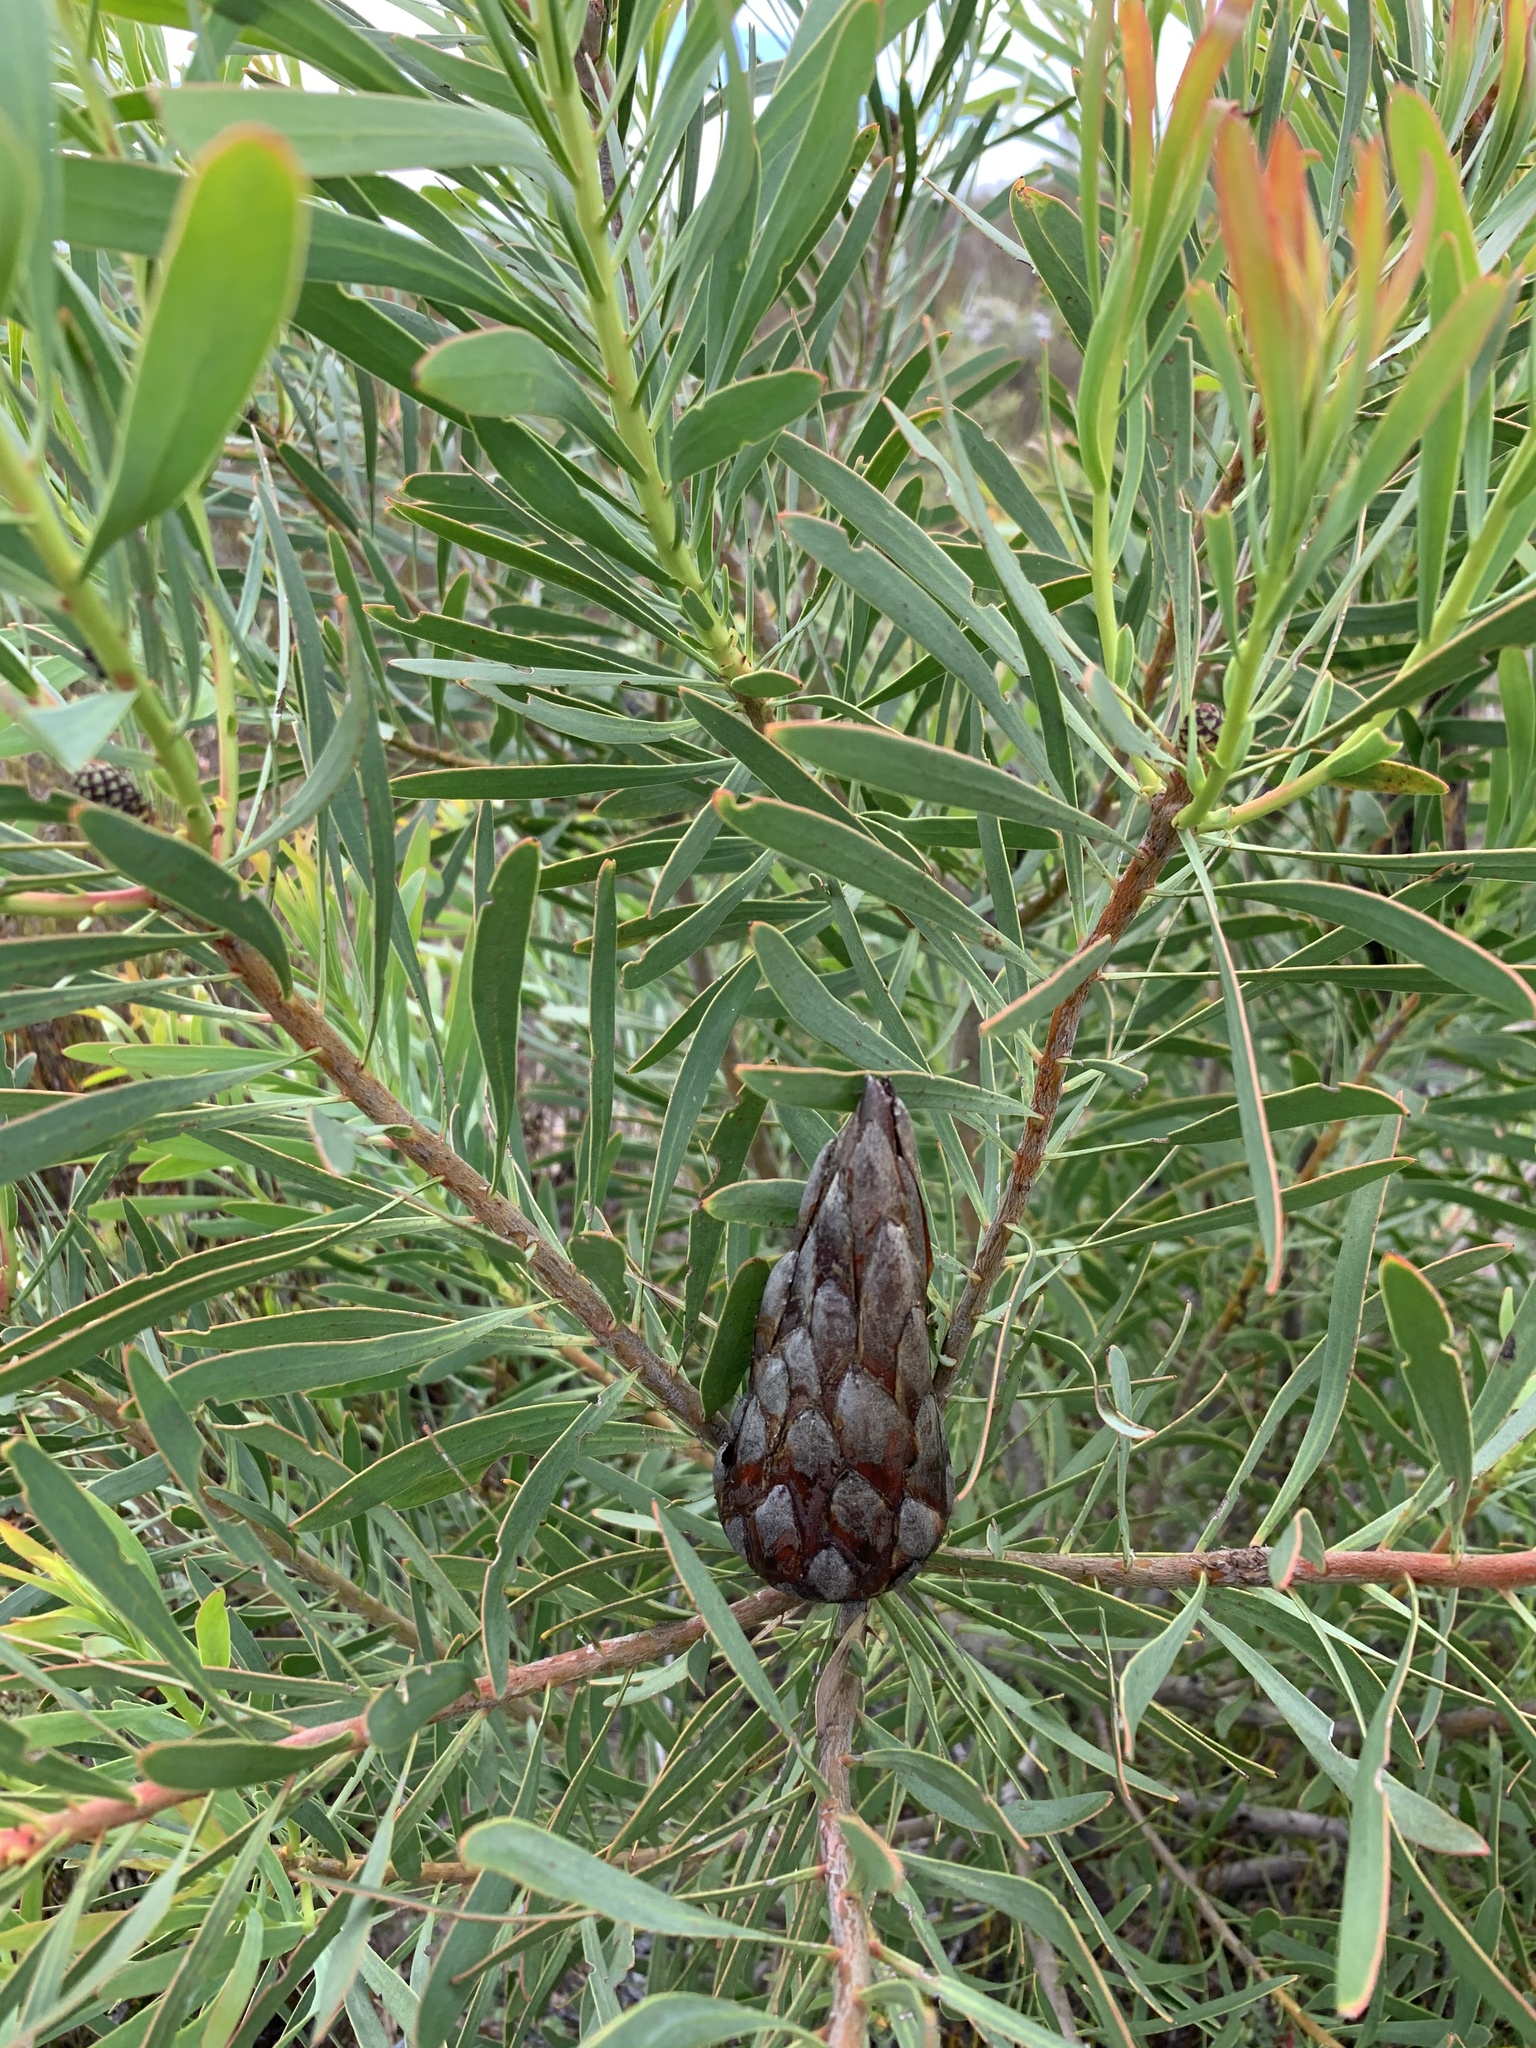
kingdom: Plantae
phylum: Tracheophyta
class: Magnoliopsida
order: Proteales
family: Proteaceae
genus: Protea
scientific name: Protea repens
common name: Sugarbush
